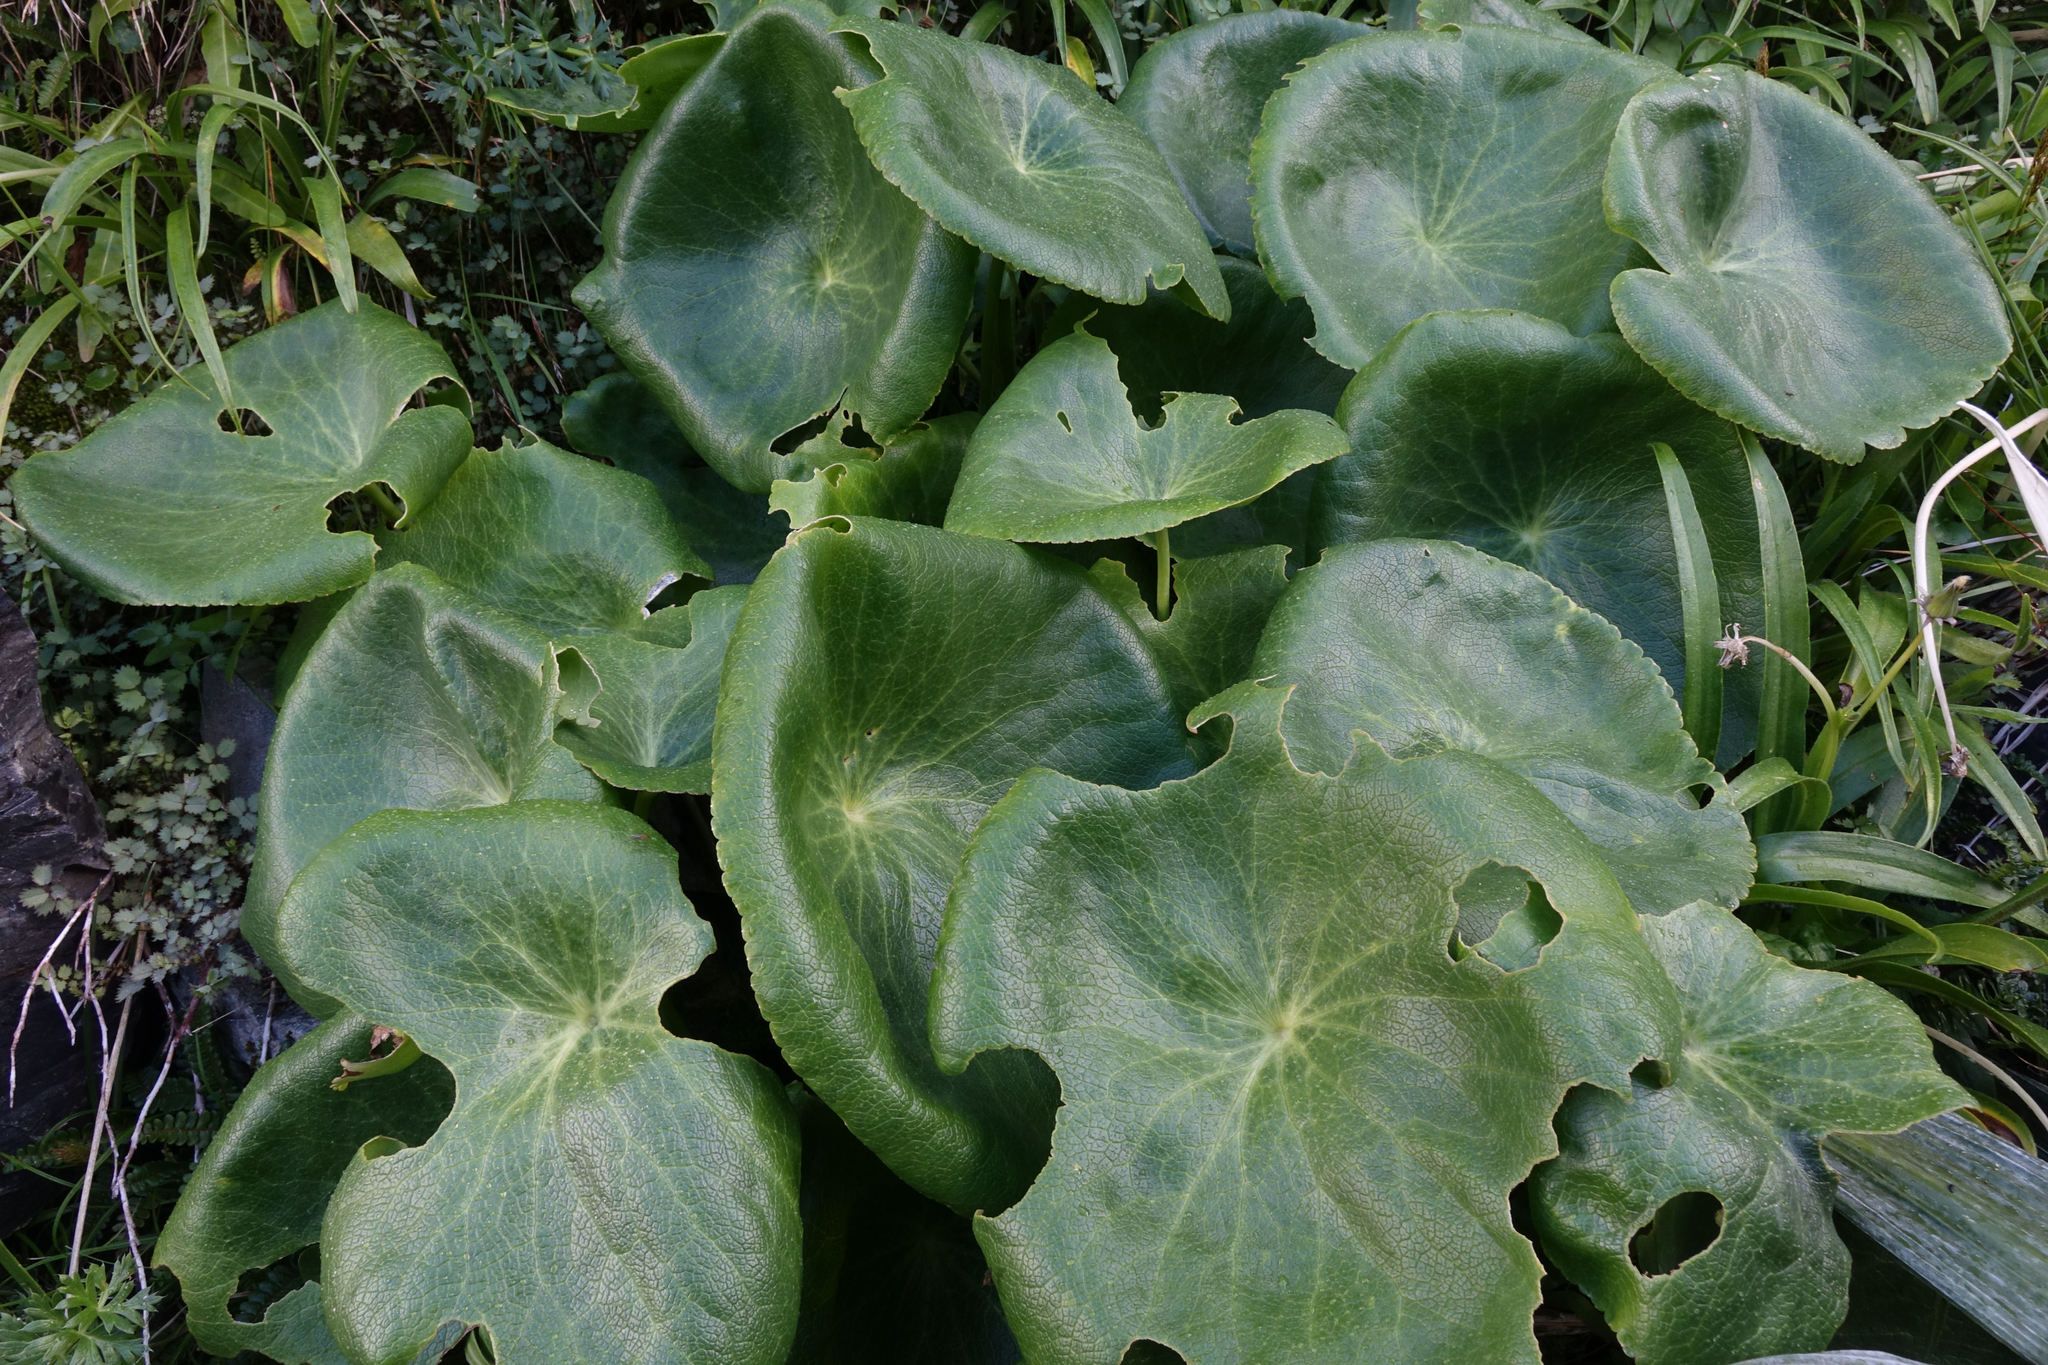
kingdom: Plantae
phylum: Tracheophyta
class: Magnoliopsida
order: Ranunculales
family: Ranunculaceae
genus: Ranunculus
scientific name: Ranunculus lyallii
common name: Mountain-lily
